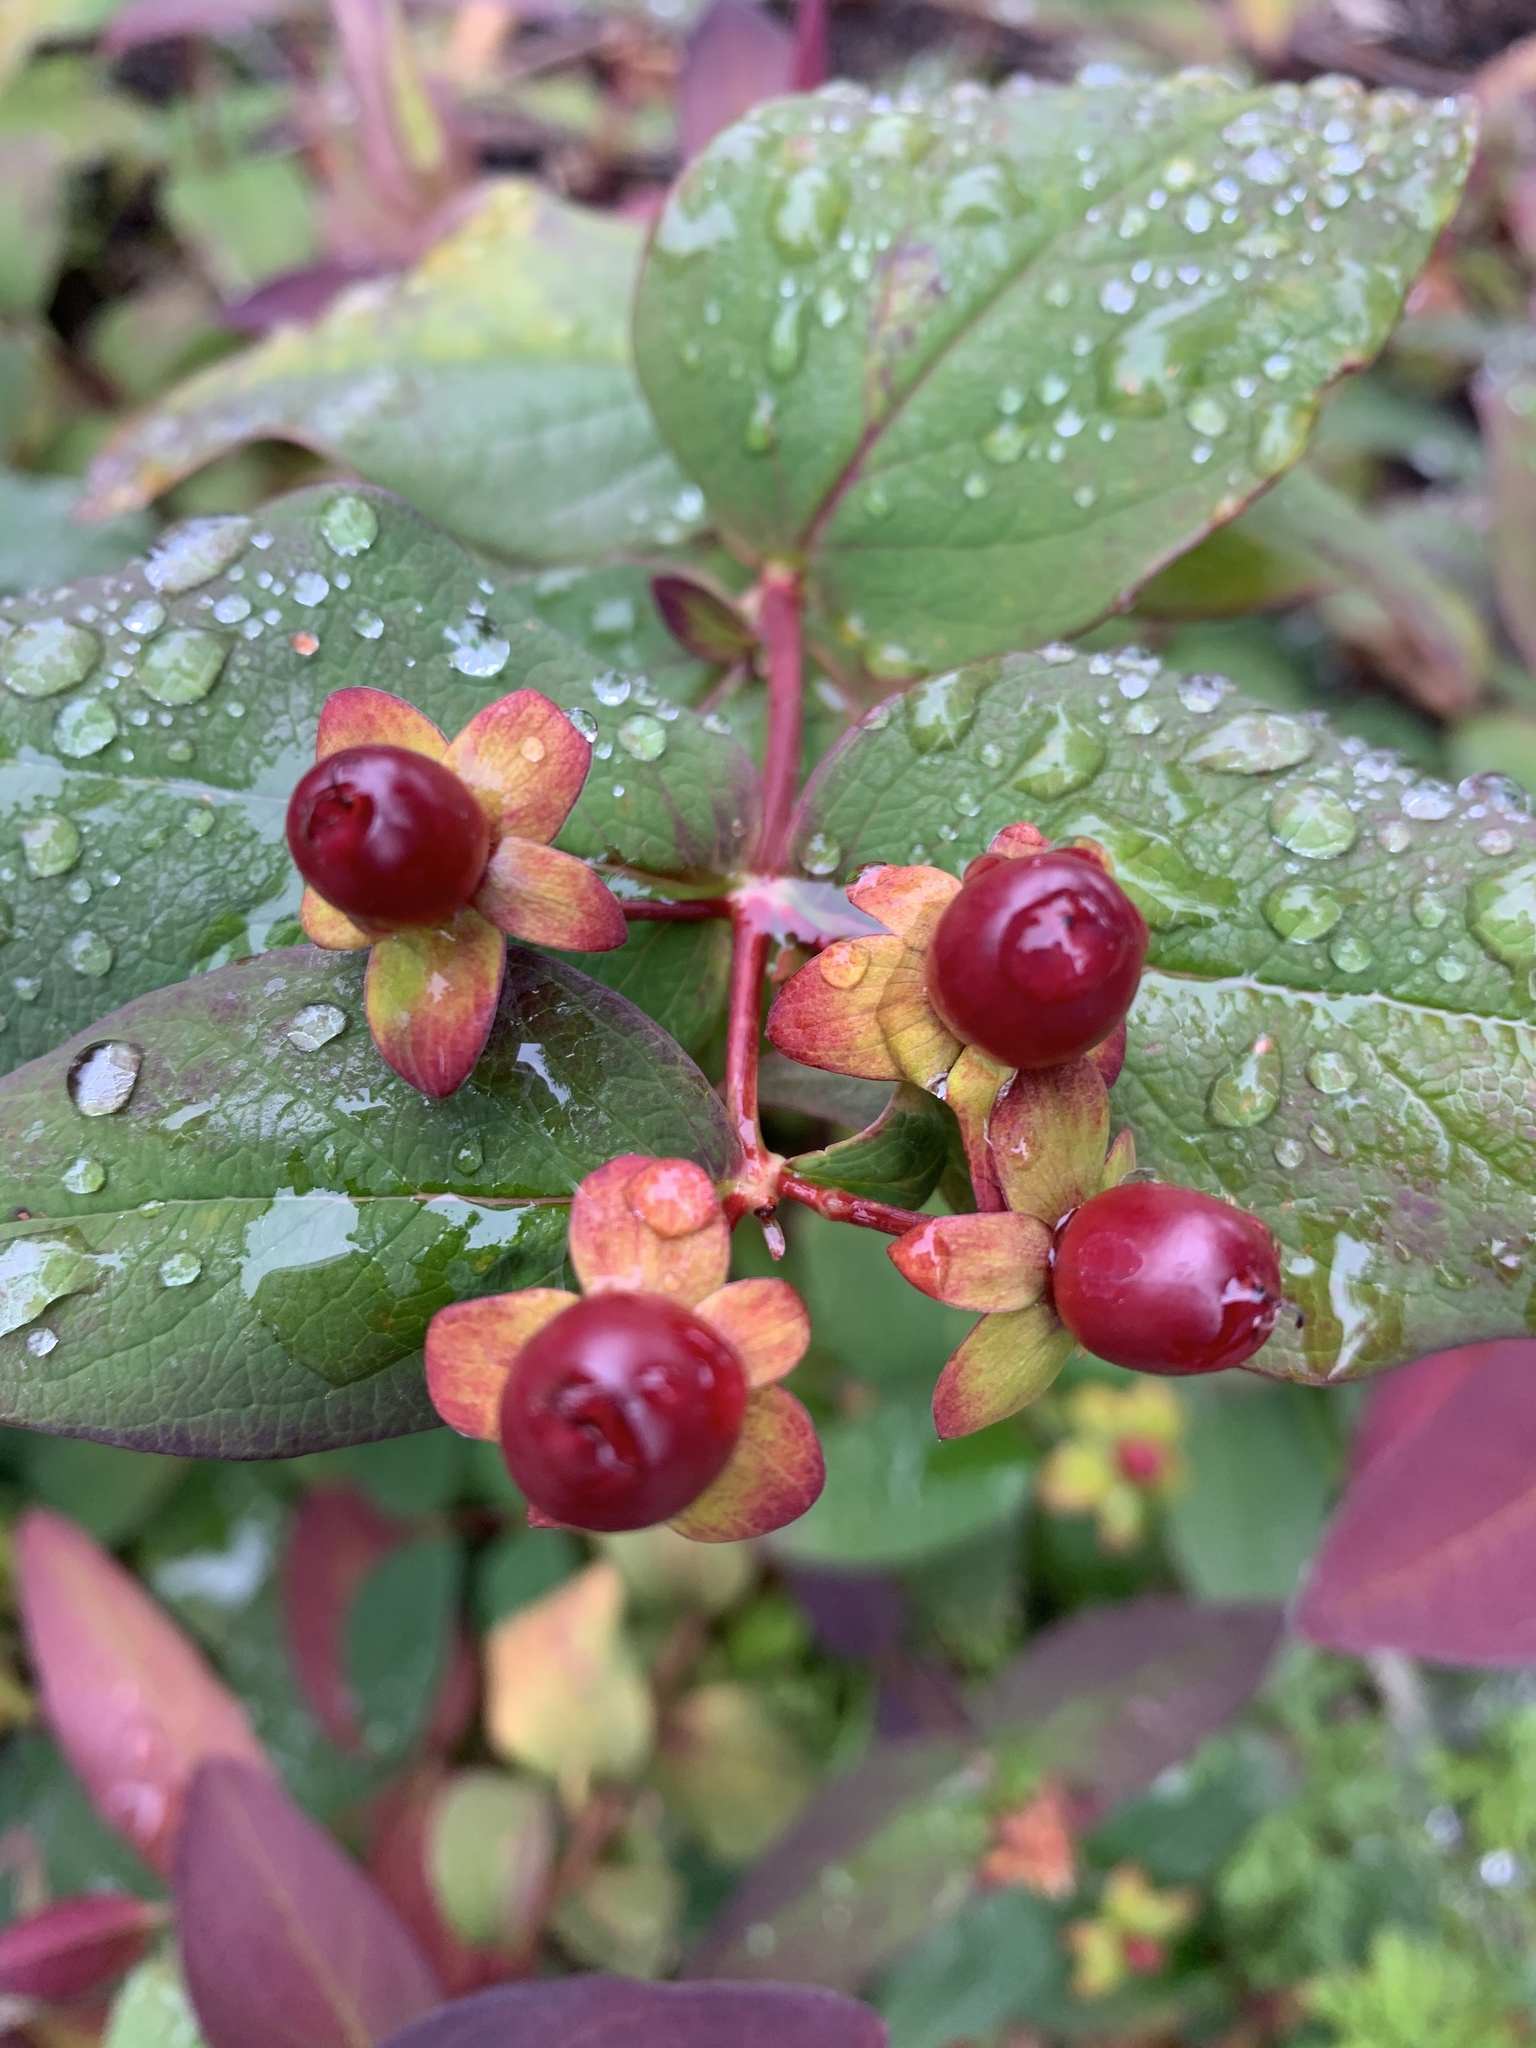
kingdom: Plantae
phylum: Tracheophyta
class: Magnoliopsida
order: Malpighiales
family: Hypericaceae
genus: Hypericum
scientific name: Hypericum androsaemum
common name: Sweet-amber
